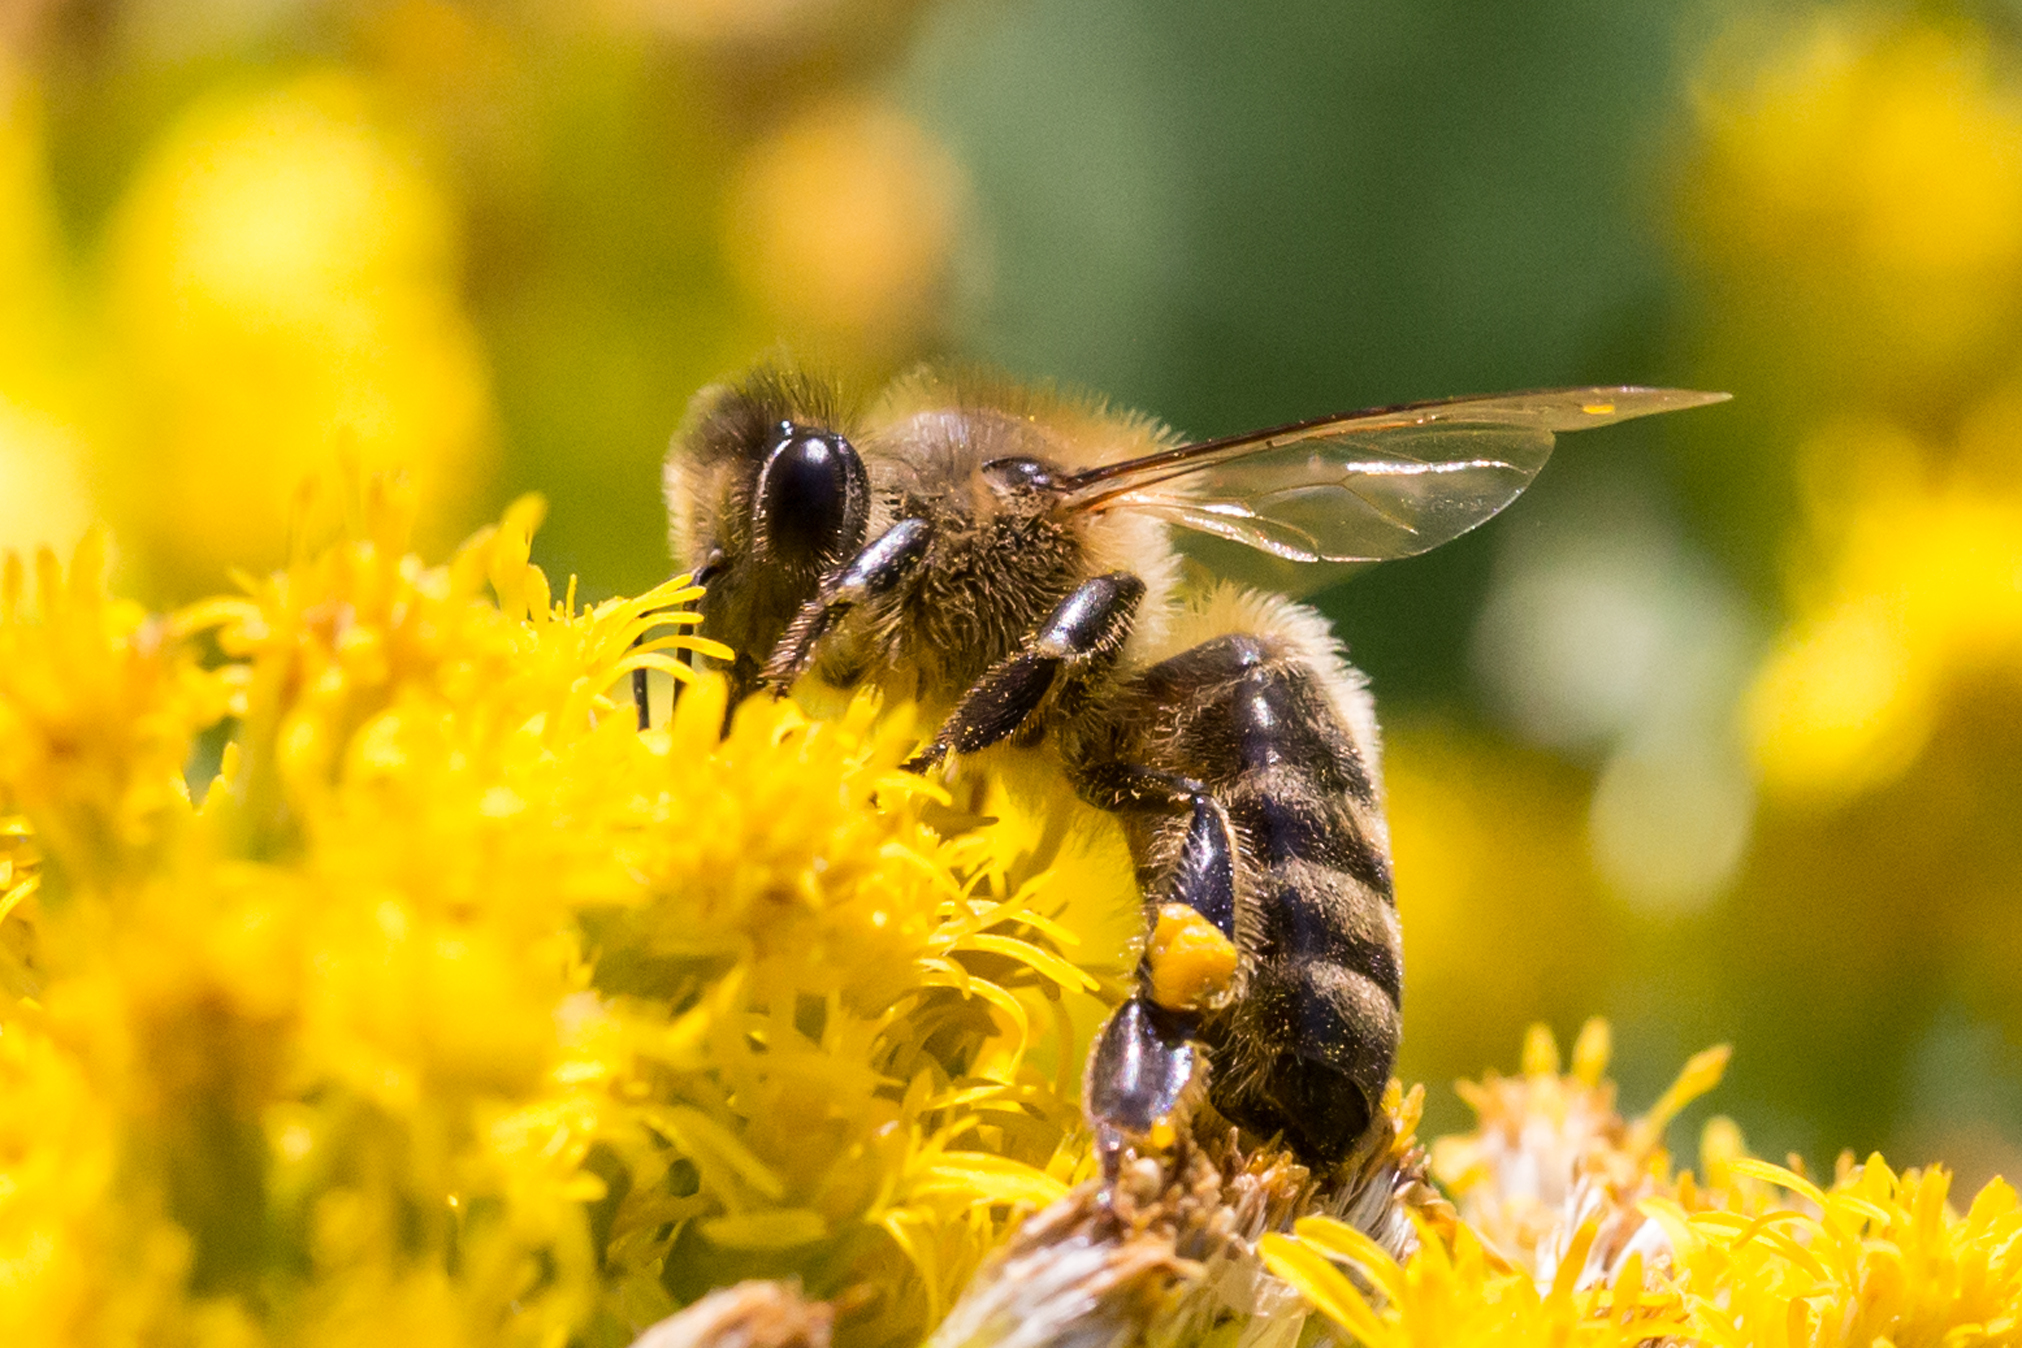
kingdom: Animalia
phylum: Arthropoda
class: Insecta
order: Hymenoptera
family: Apidae
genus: Apis
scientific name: Apis mellifera
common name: Honey bee
